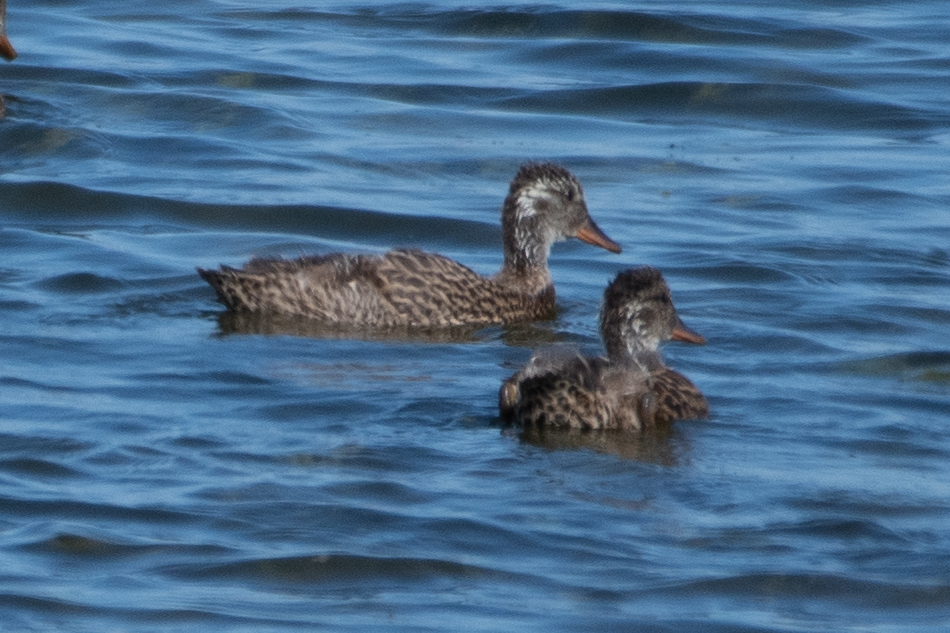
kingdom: Animalia
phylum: Chordata
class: Aves
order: Anseriformes
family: Anatidae
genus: Mareca
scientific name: Mareca strepera
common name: Gadwall
